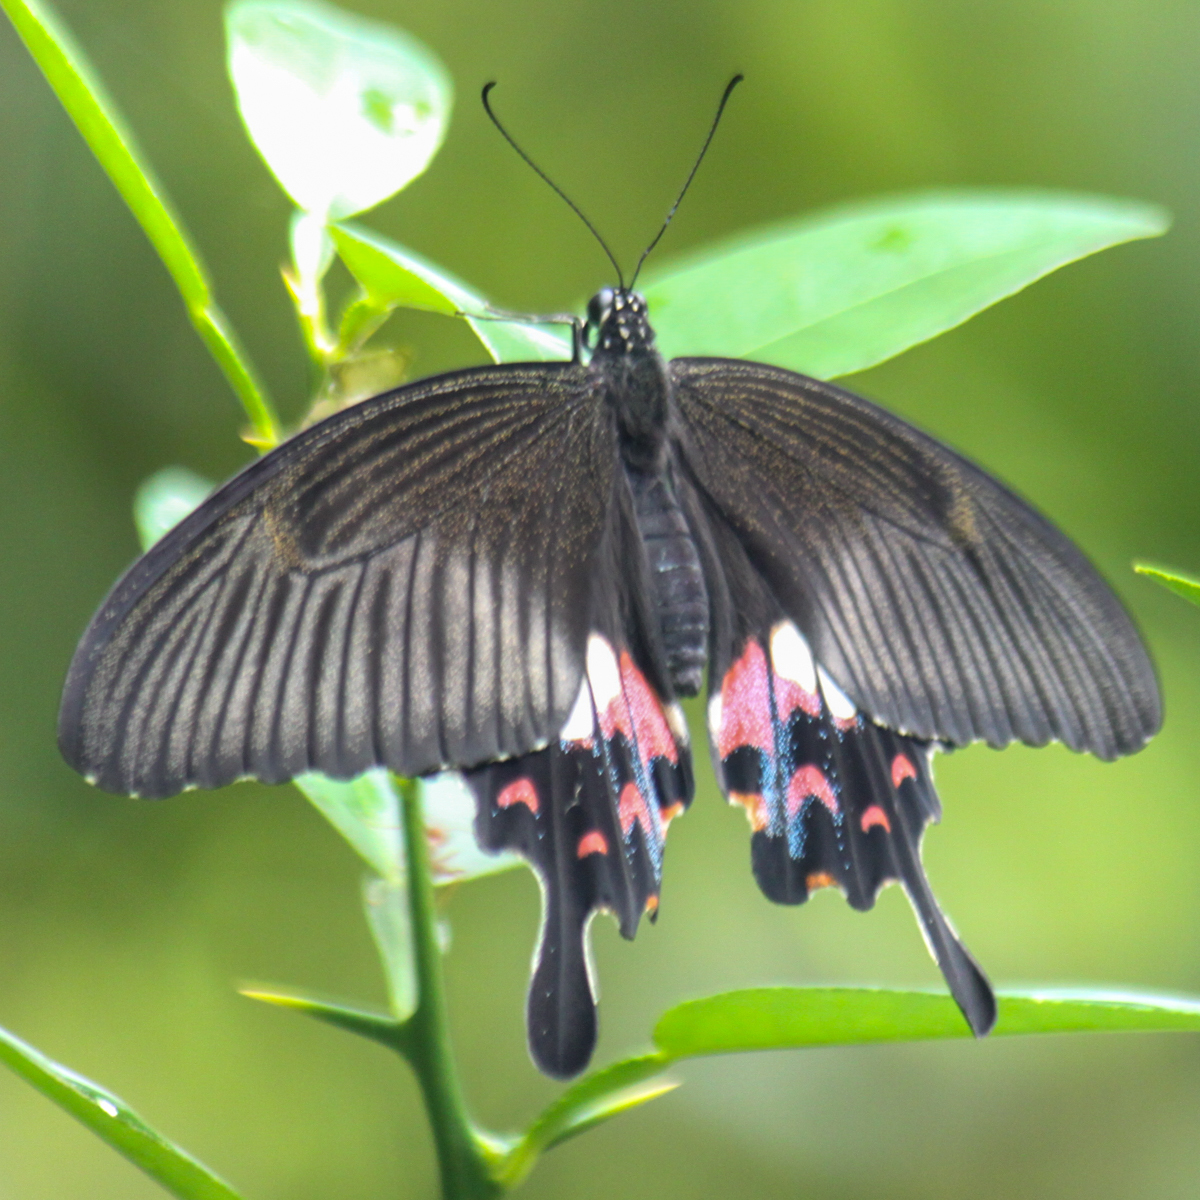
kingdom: Animalia
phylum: Arthropoda
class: Insecta
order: Lepidoptera
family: Papilionidae
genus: Papilio
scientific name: Papilio polytes
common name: Common mormon
